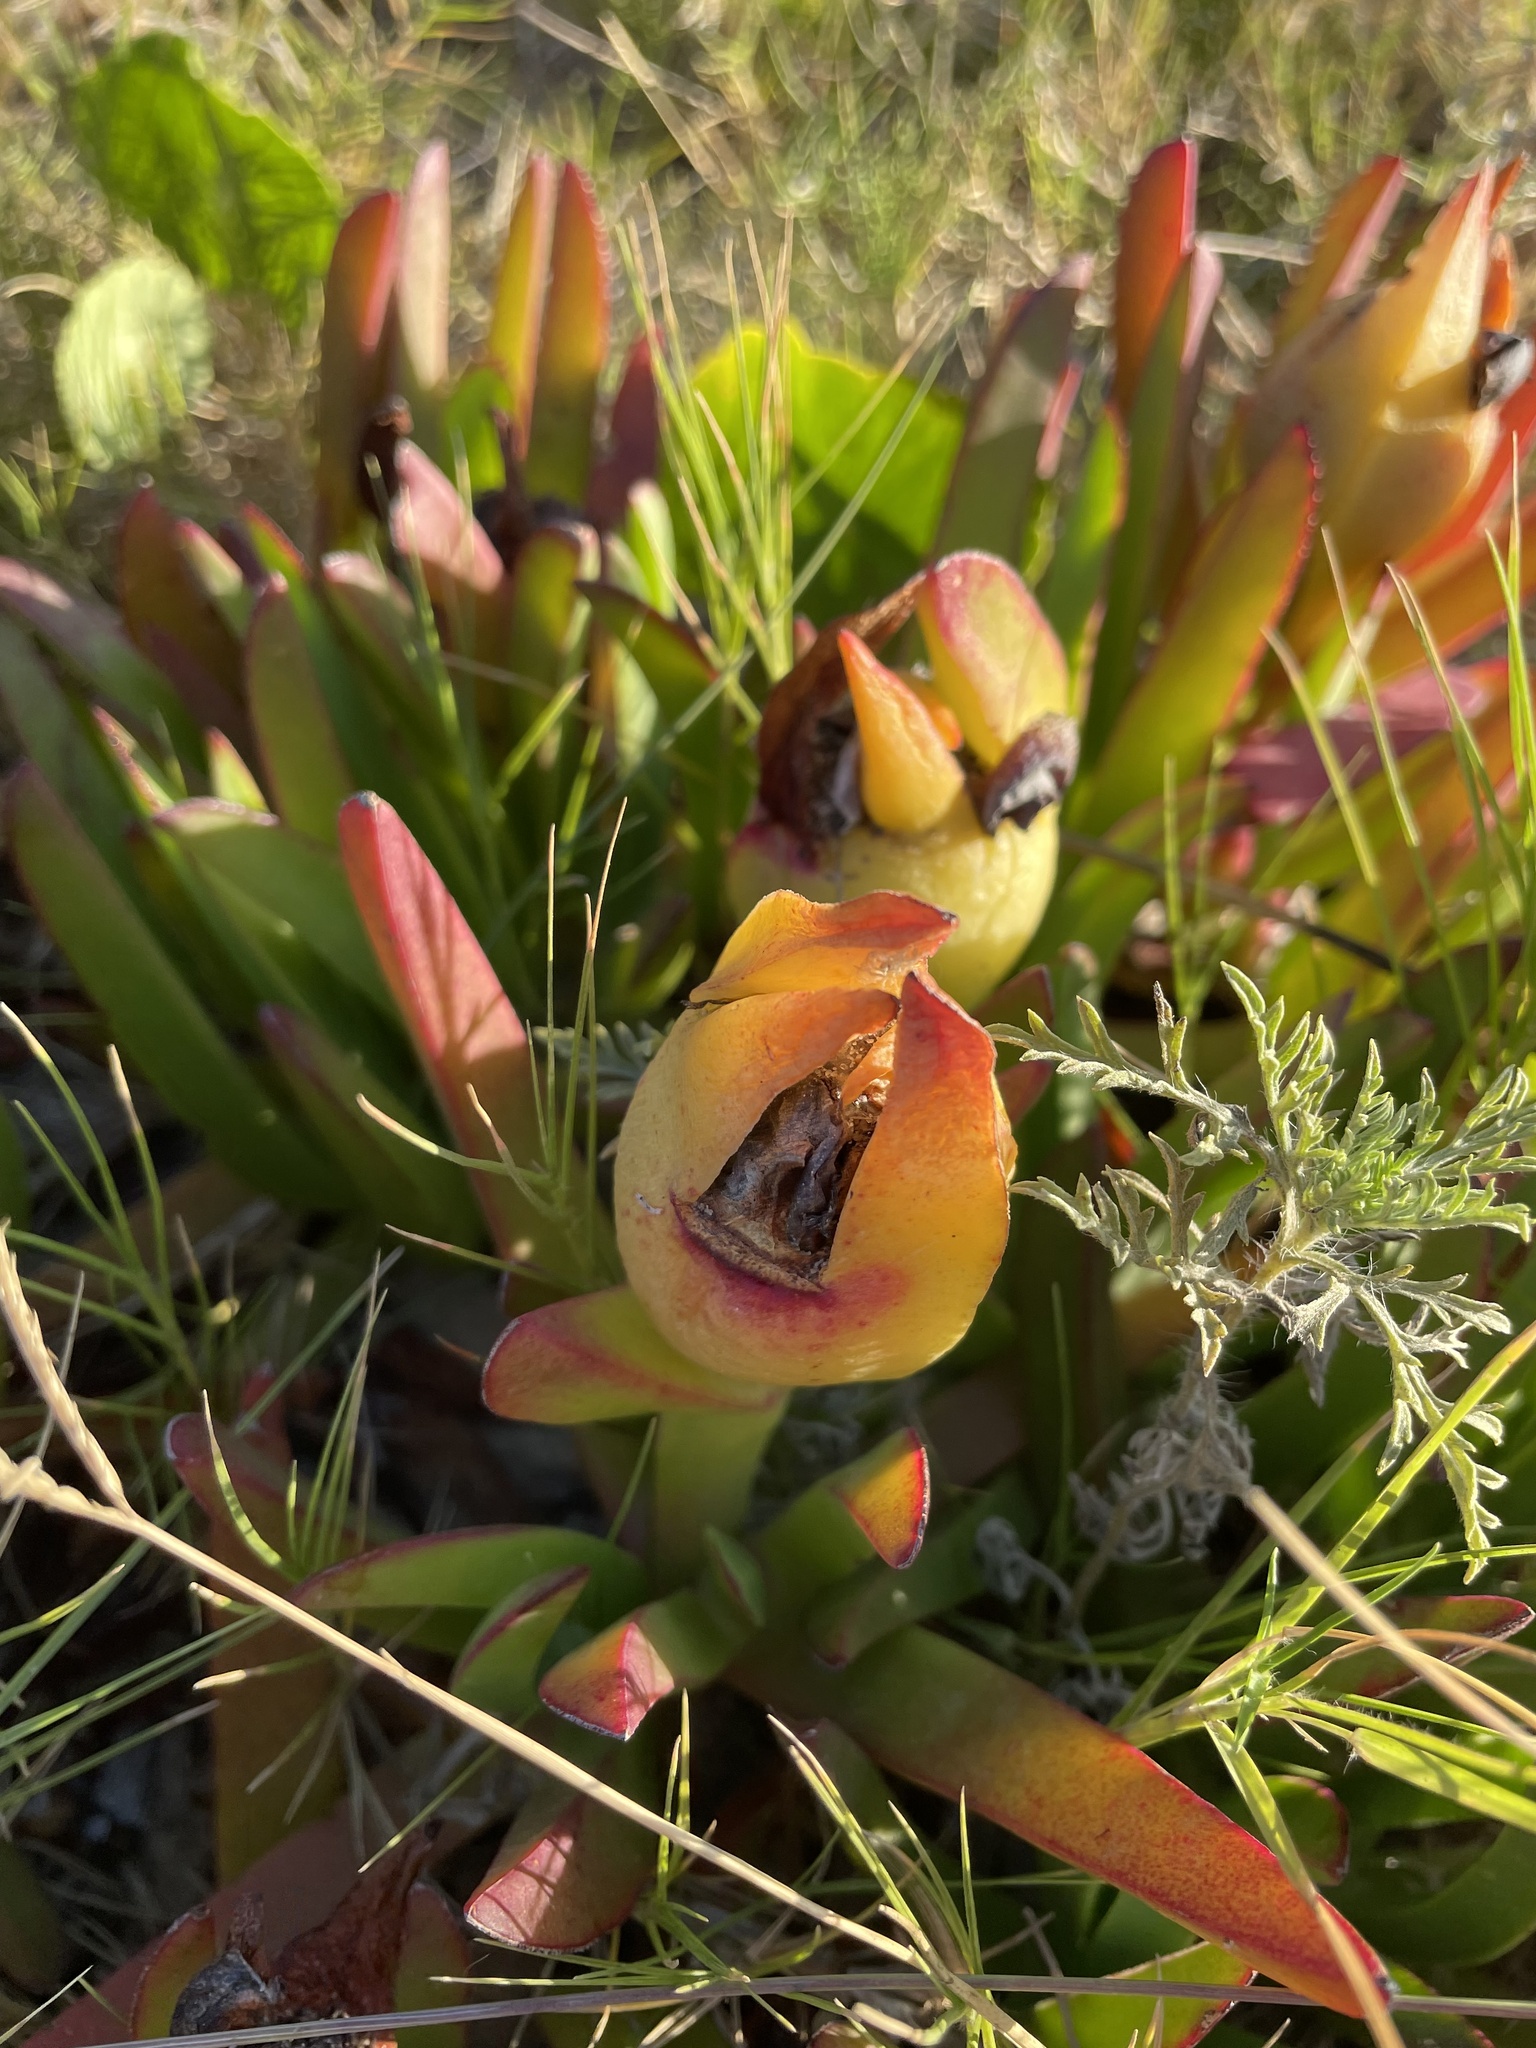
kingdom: Plantae
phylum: Tracheophyta
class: Magnoliopsida
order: Caryophyllales
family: Aizoaceae
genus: Carpobrotus
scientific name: Carpobrotus edulis
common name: Hottentot-fig
